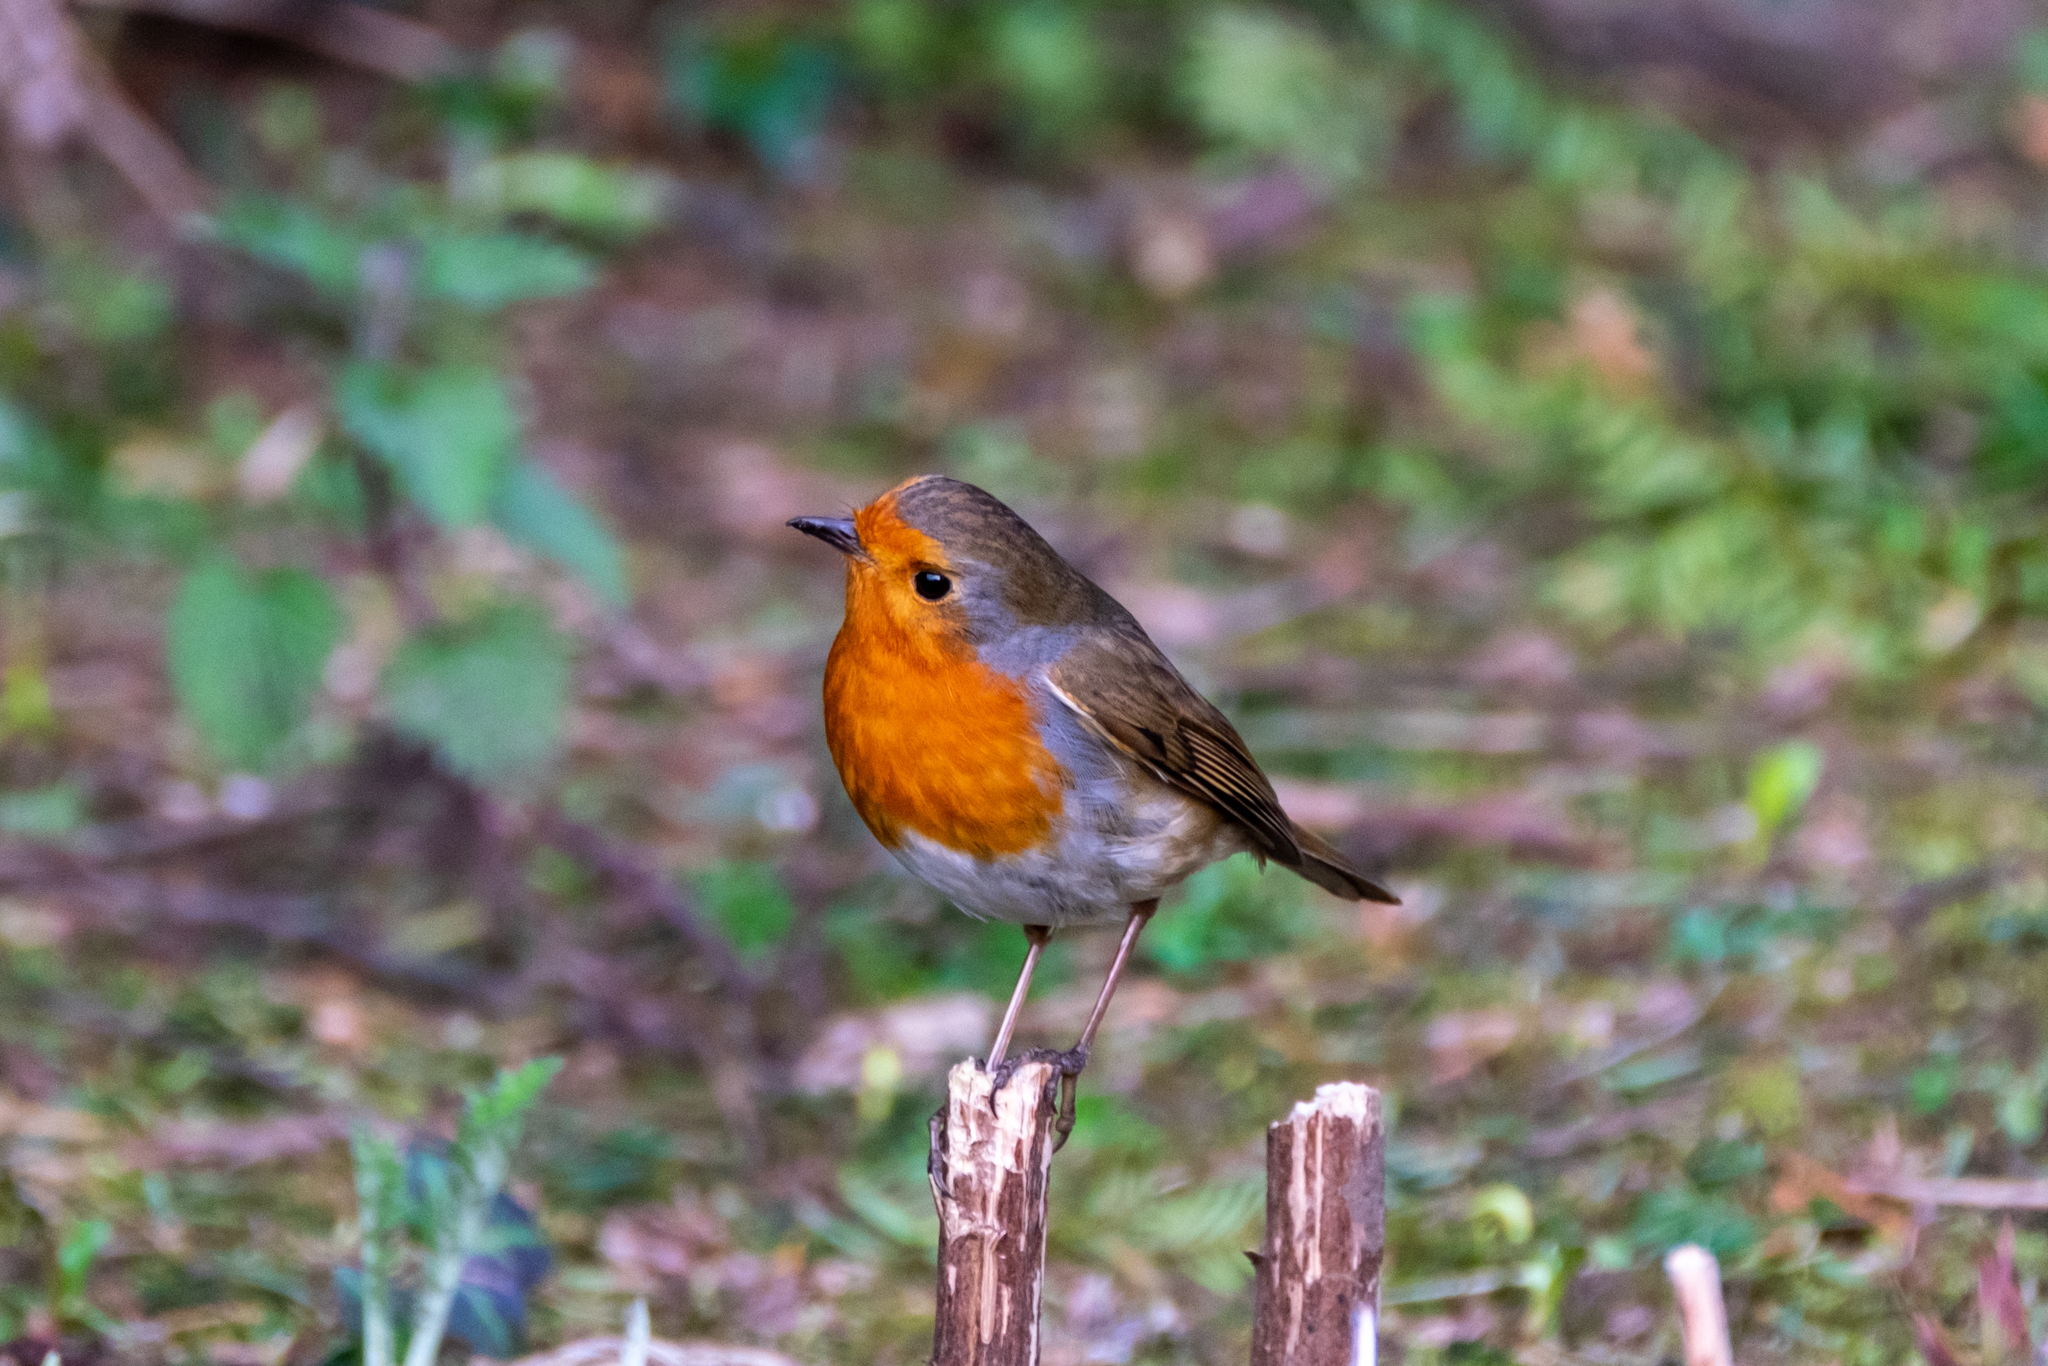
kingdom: Animalia
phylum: Chordata
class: Aves
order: Passeriformes
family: Muscicapidae
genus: Erithacus
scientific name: Erithacus rubecula
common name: European robin
